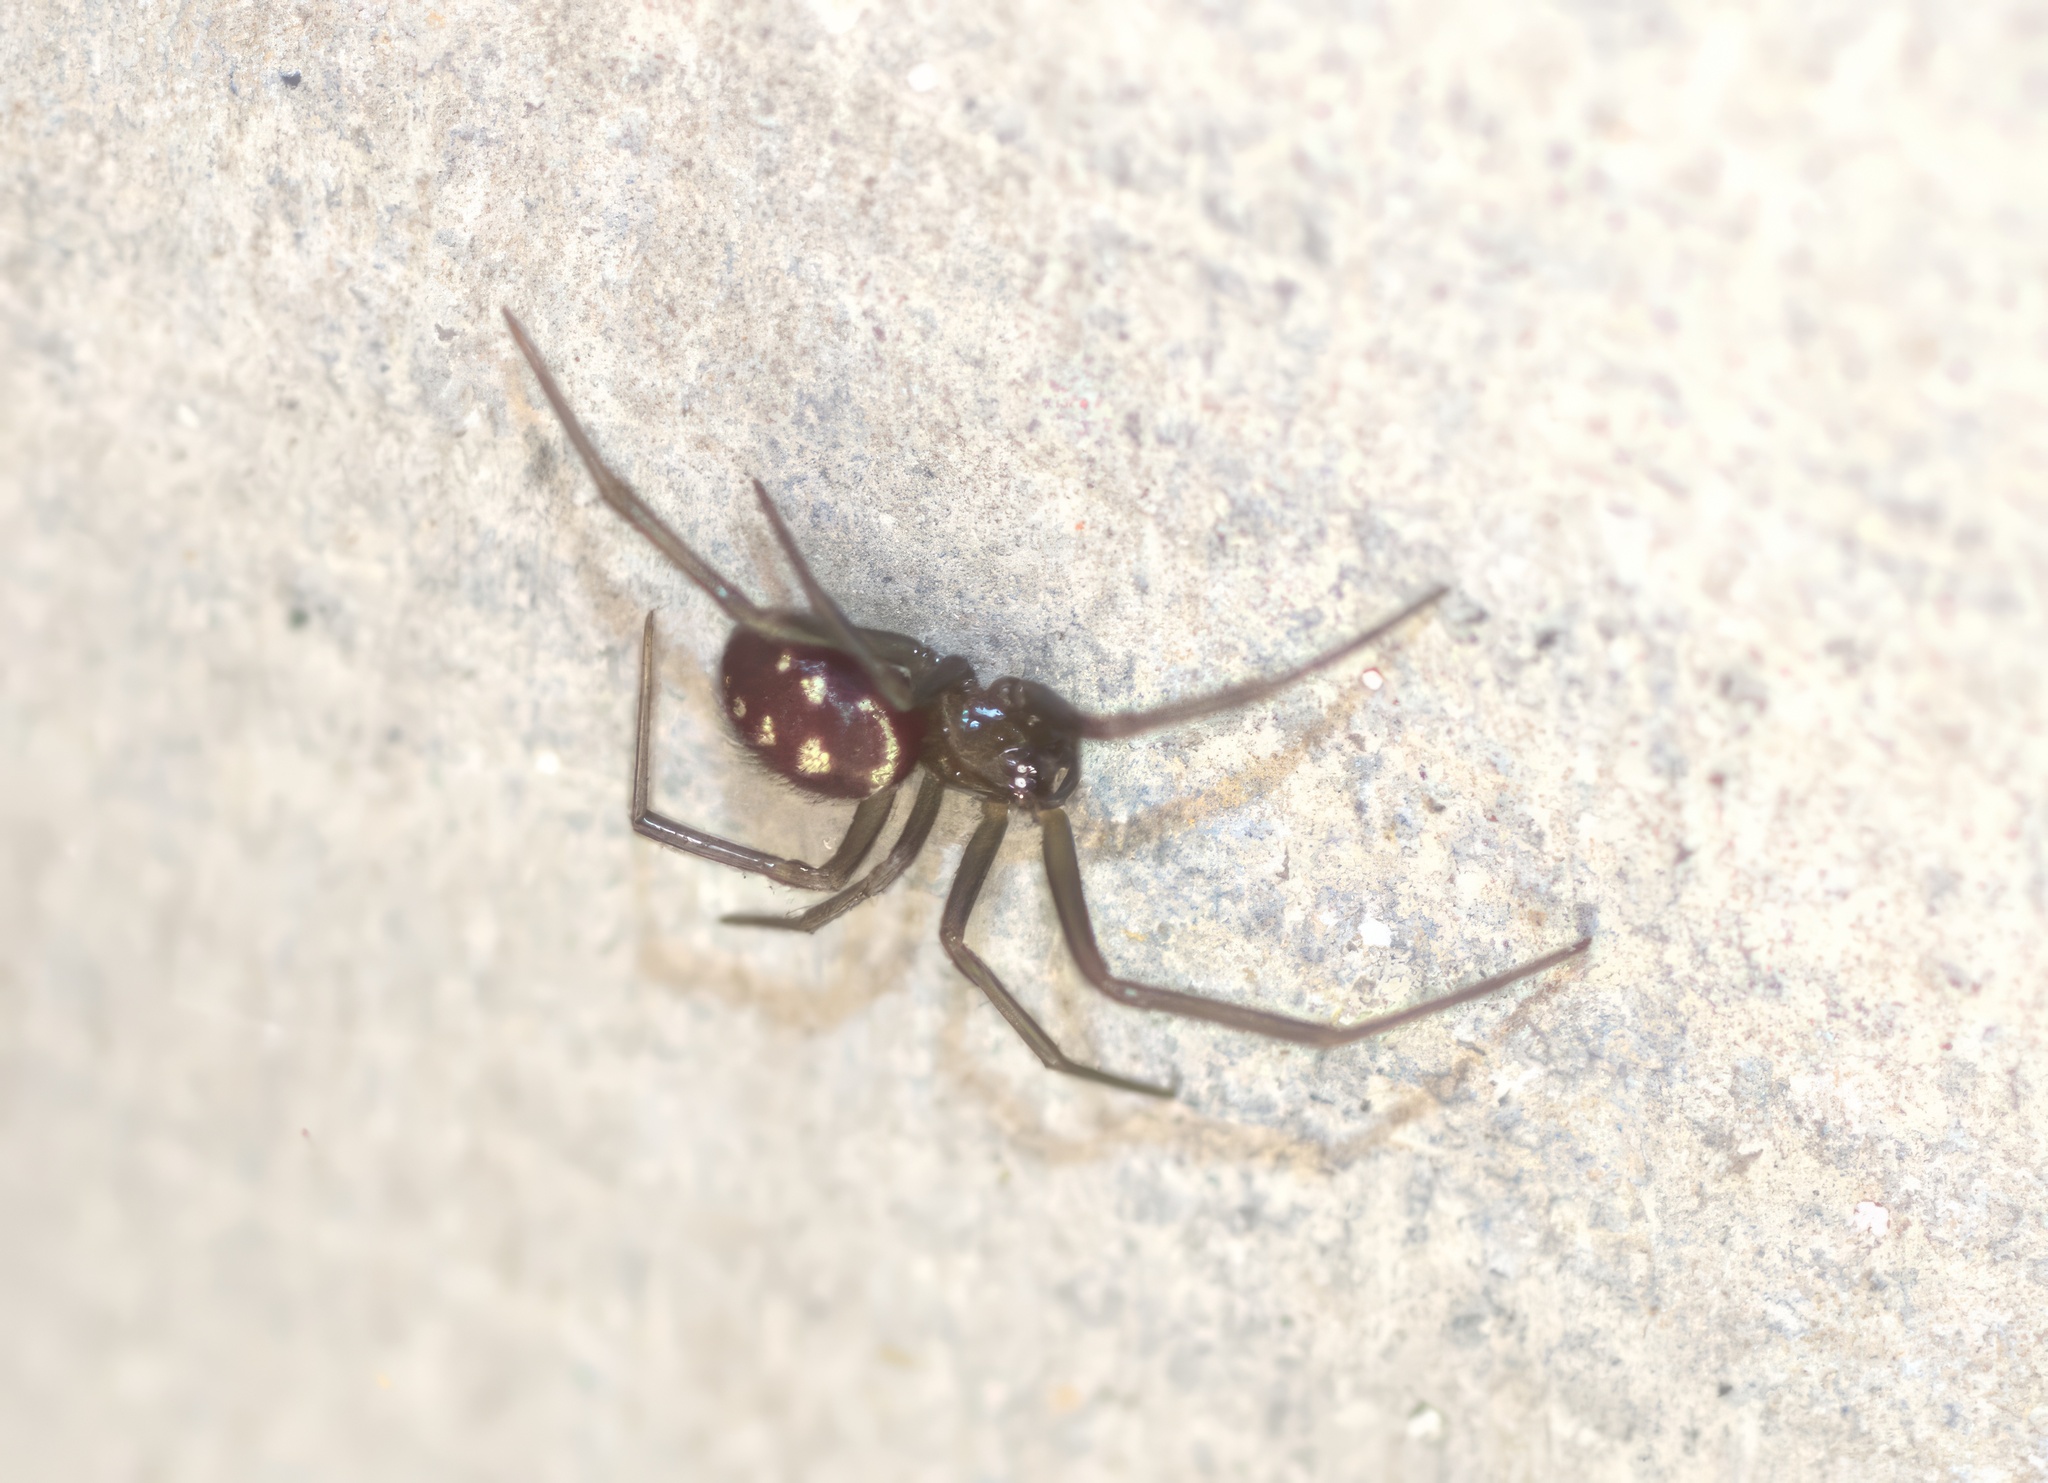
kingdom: Animalia
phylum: Arthropoda
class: Arachnida
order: Araneae
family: Theridiidae
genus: Steatoda
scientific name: Steatoda grossa
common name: False black widow
